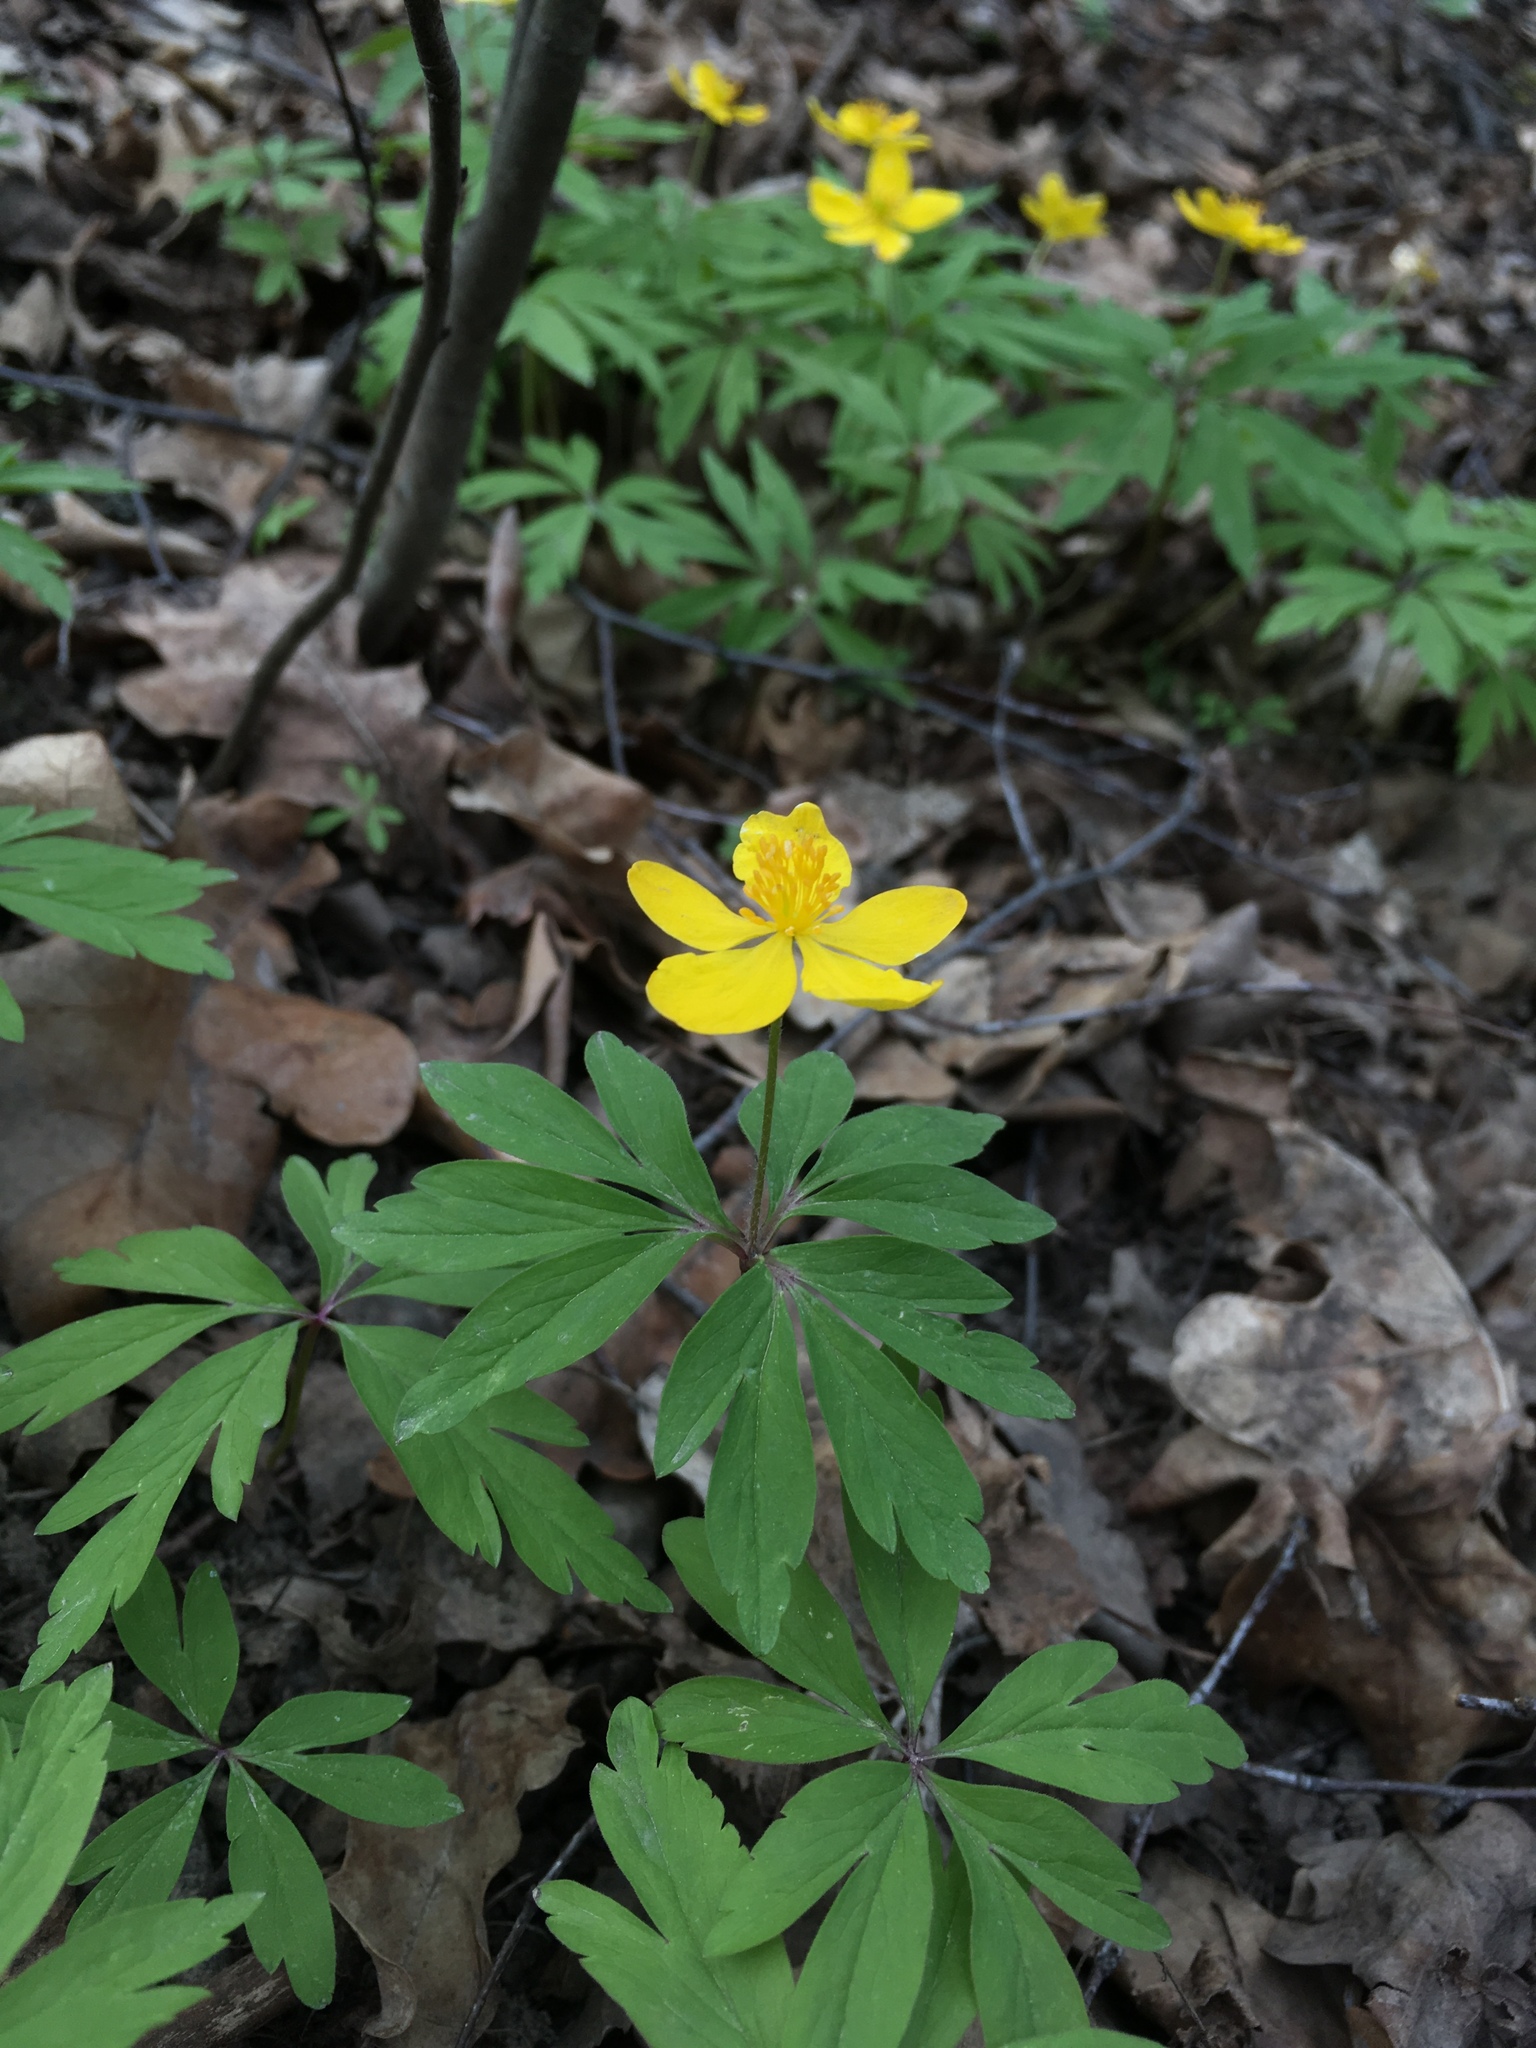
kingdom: Plantae
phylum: Tracheophyta
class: Magnoliopsida
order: Ranunculales
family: Ranunculaceae
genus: Anemone
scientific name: Anemone ranunculoides
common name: Yellow anemone
